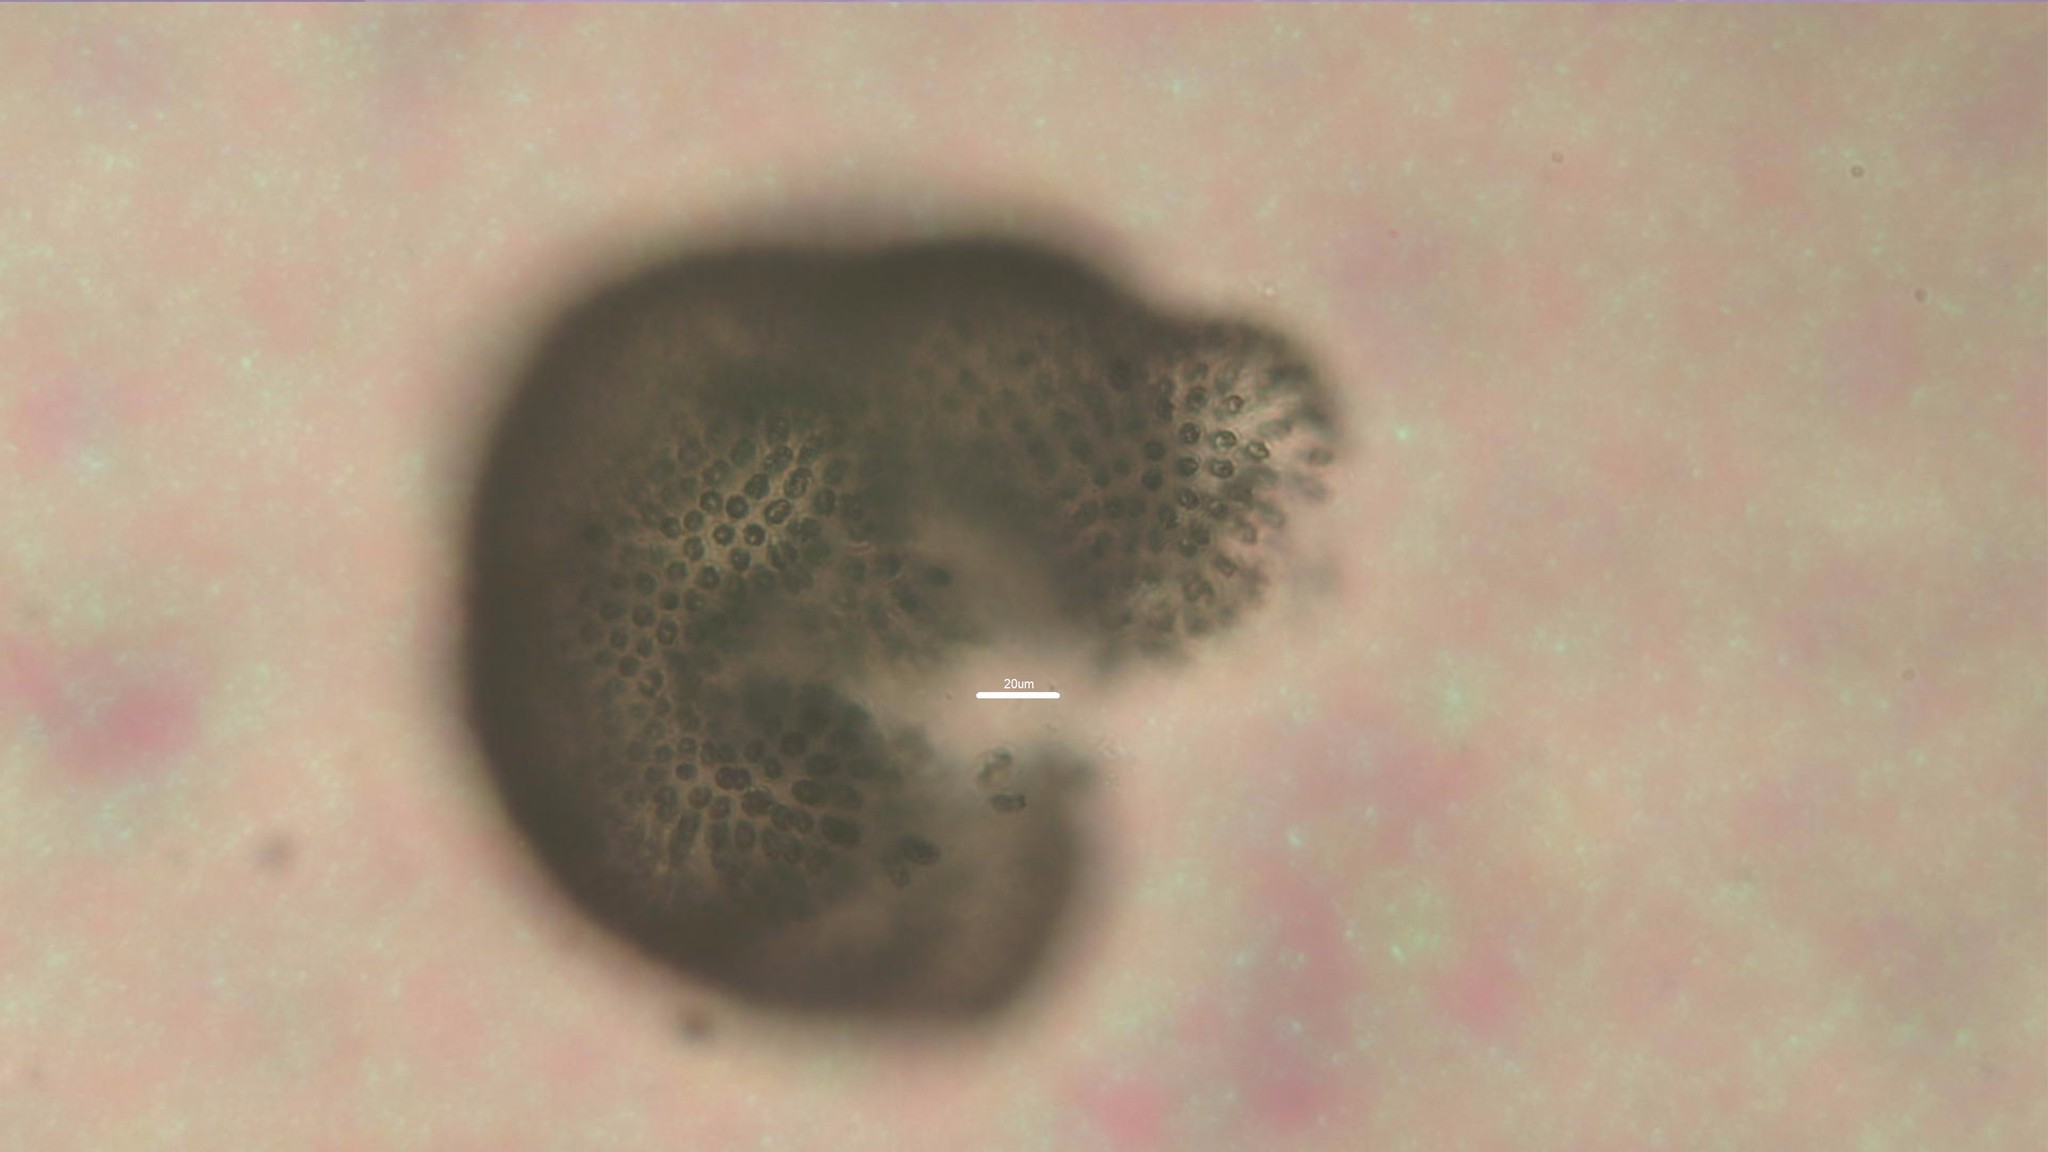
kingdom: Bacteria
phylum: Cyanobacteria
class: Cyanobacteriia
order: Synechococcales
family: Coelosphaeriaceae
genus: Woronichinia
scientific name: Woronichinia naegeliana
